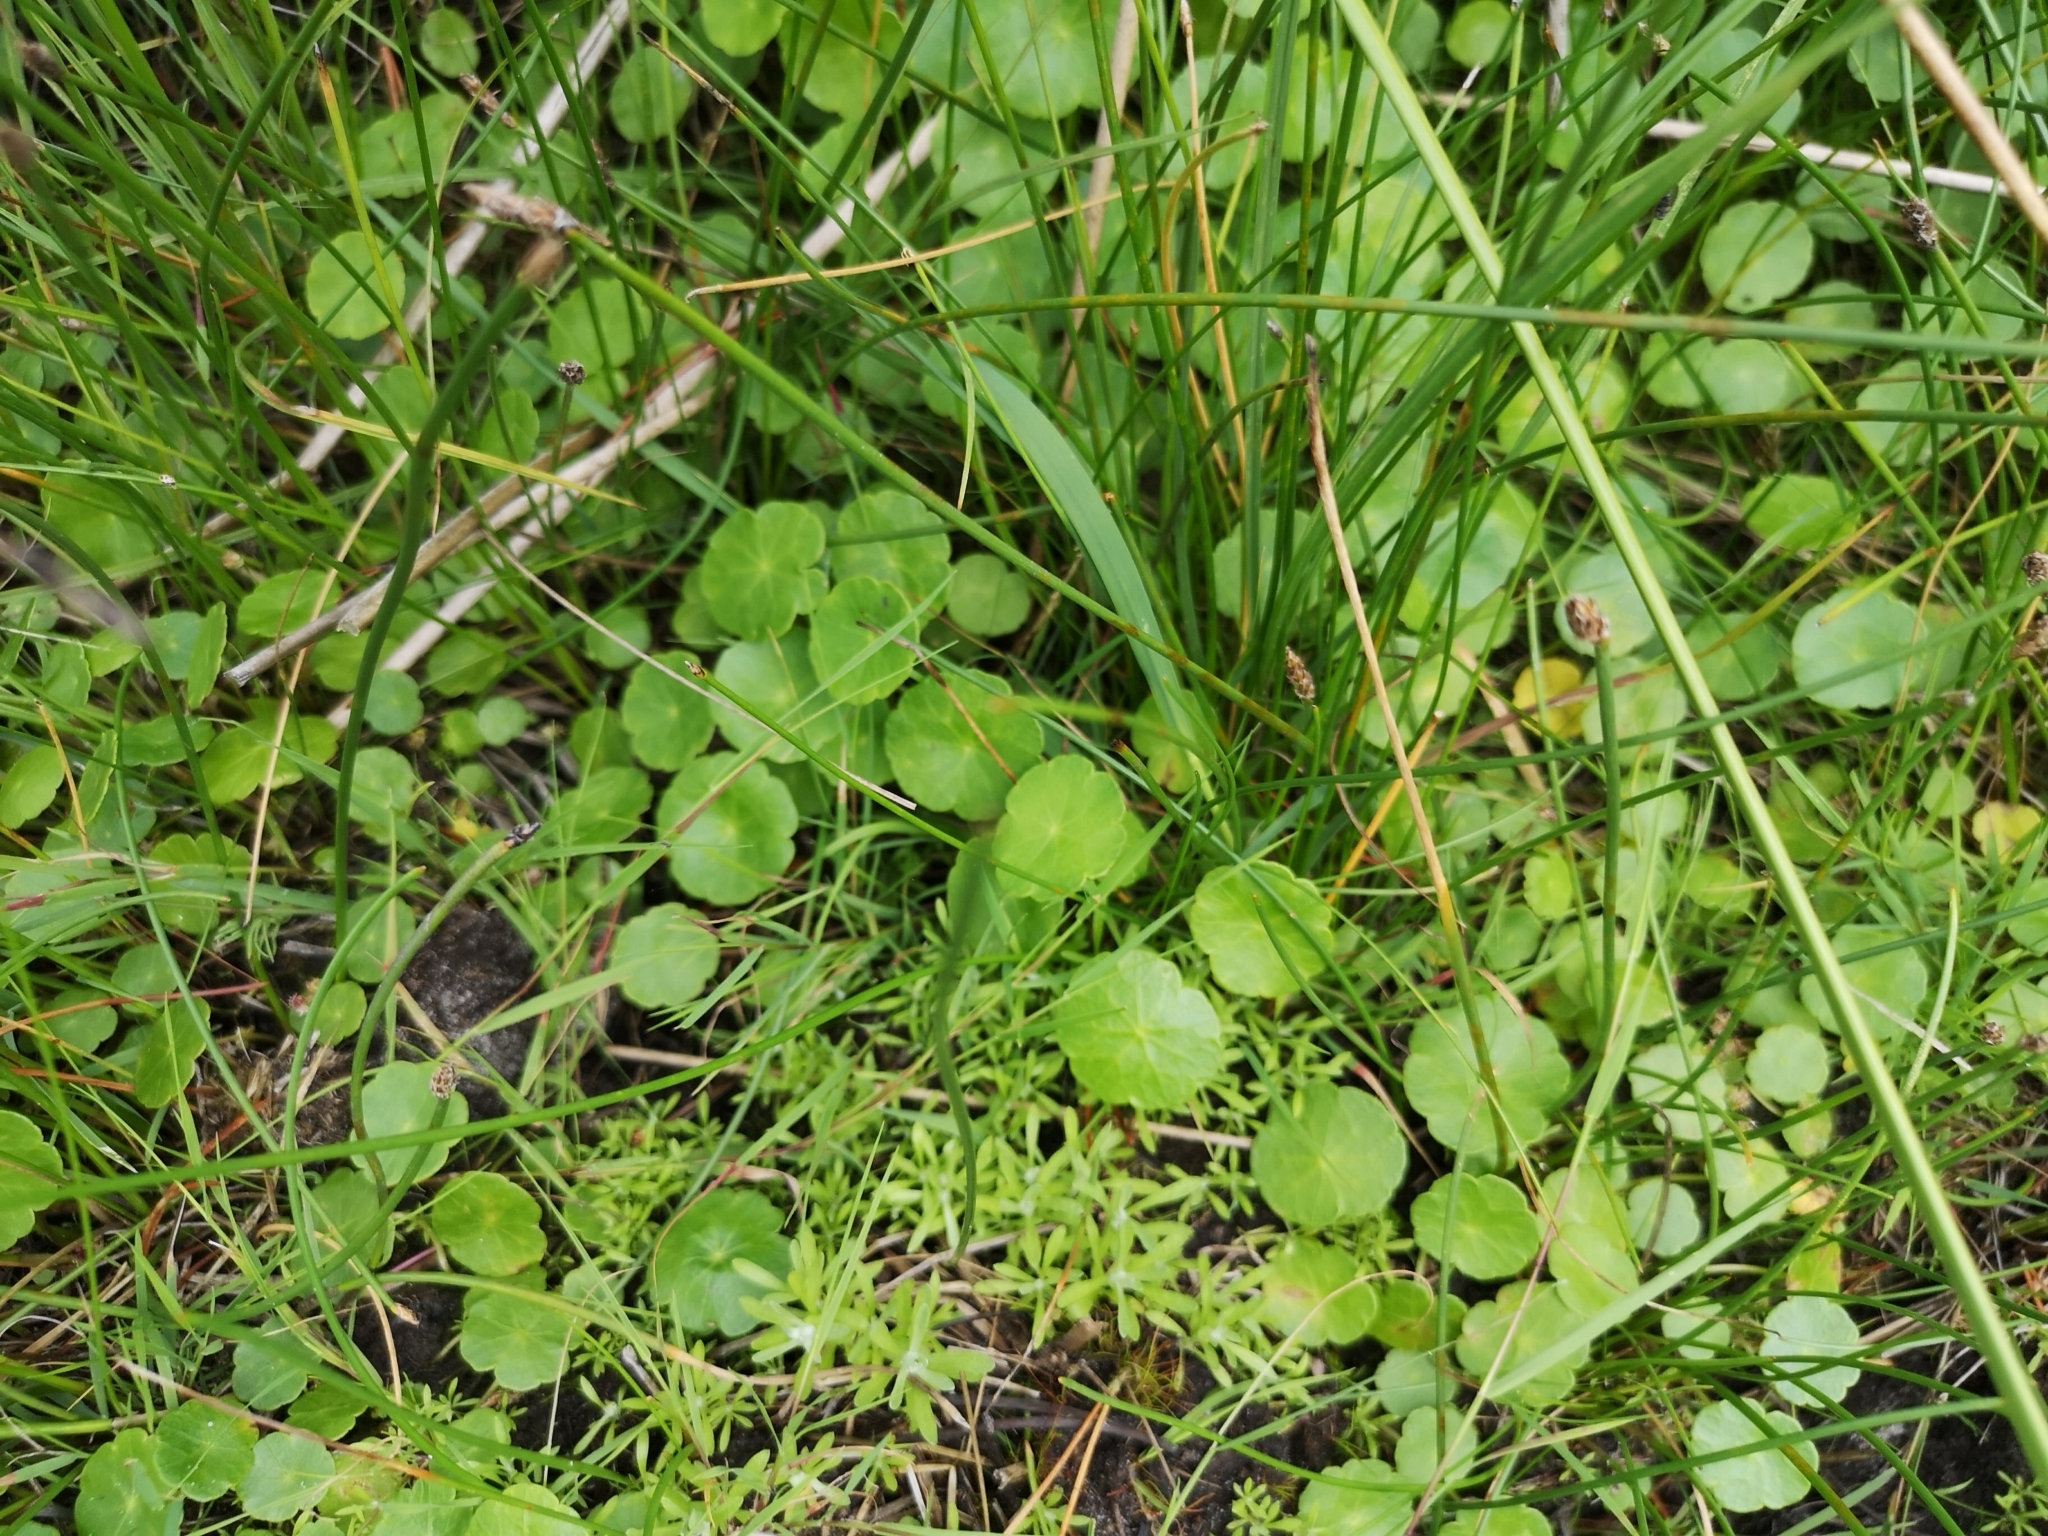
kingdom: Plantae
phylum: Tracheophyta
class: Magnoliopsida
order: Apiales
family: Araliaceae
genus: Hydrocotyle
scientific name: Hydrocotyle vulgaris
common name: Marsh pennywort
